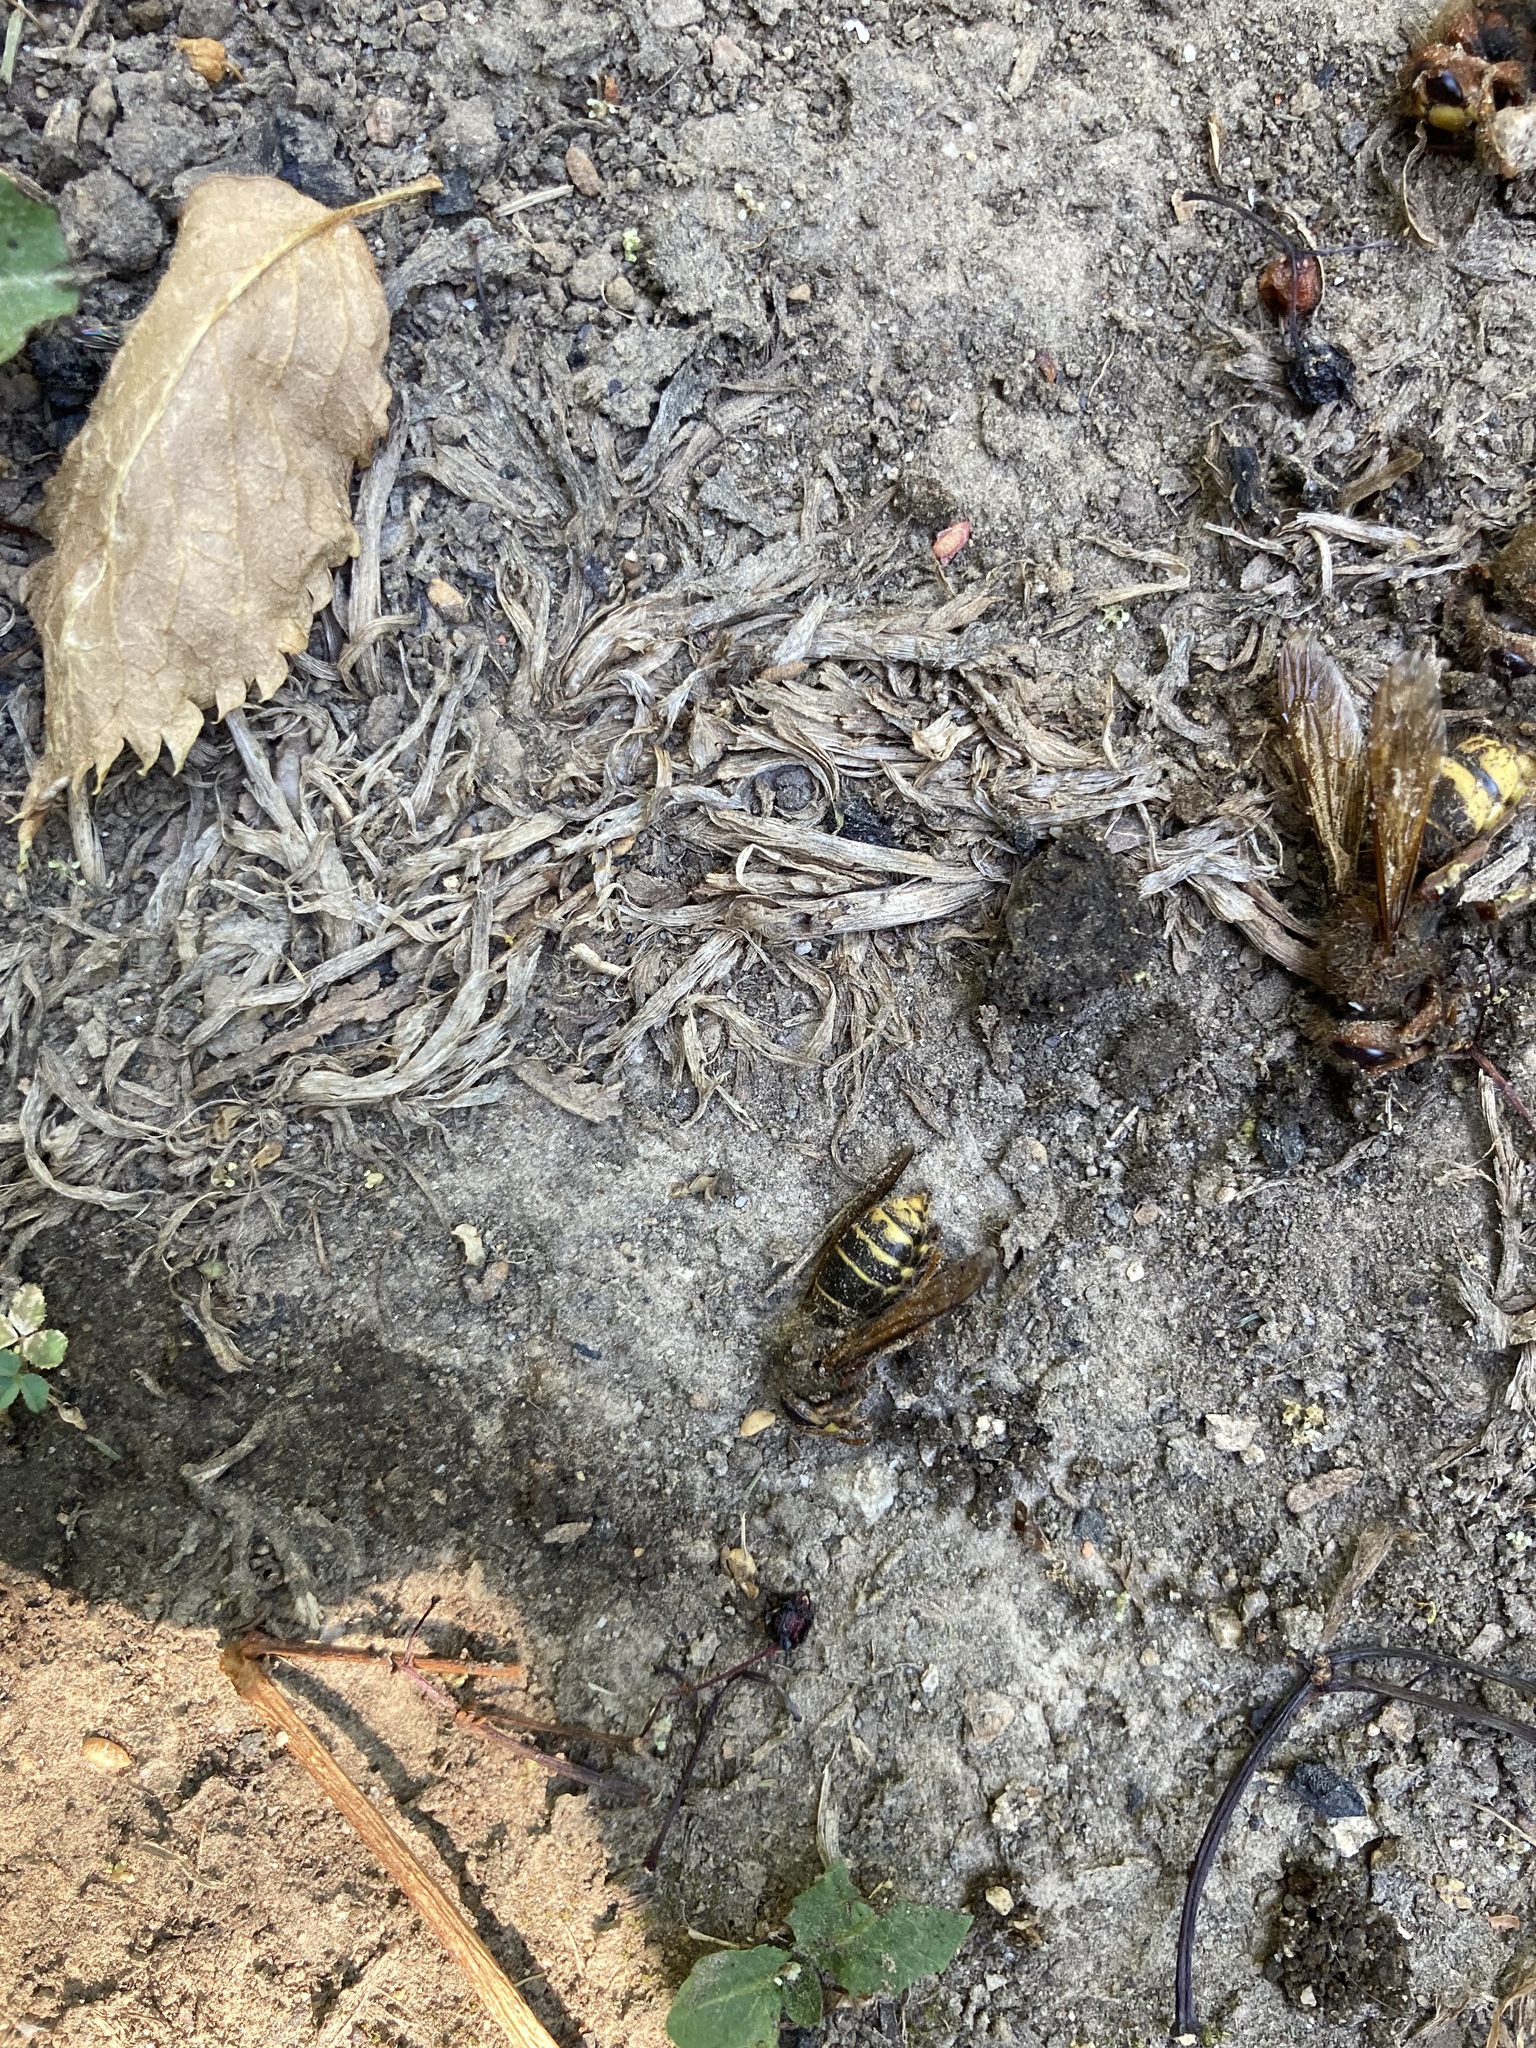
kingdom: Animalia
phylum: Arthropoda
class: Insecta
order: Hymenoptera
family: Vespidae
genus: Vespa
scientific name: Vespa crabro
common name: Hornet
